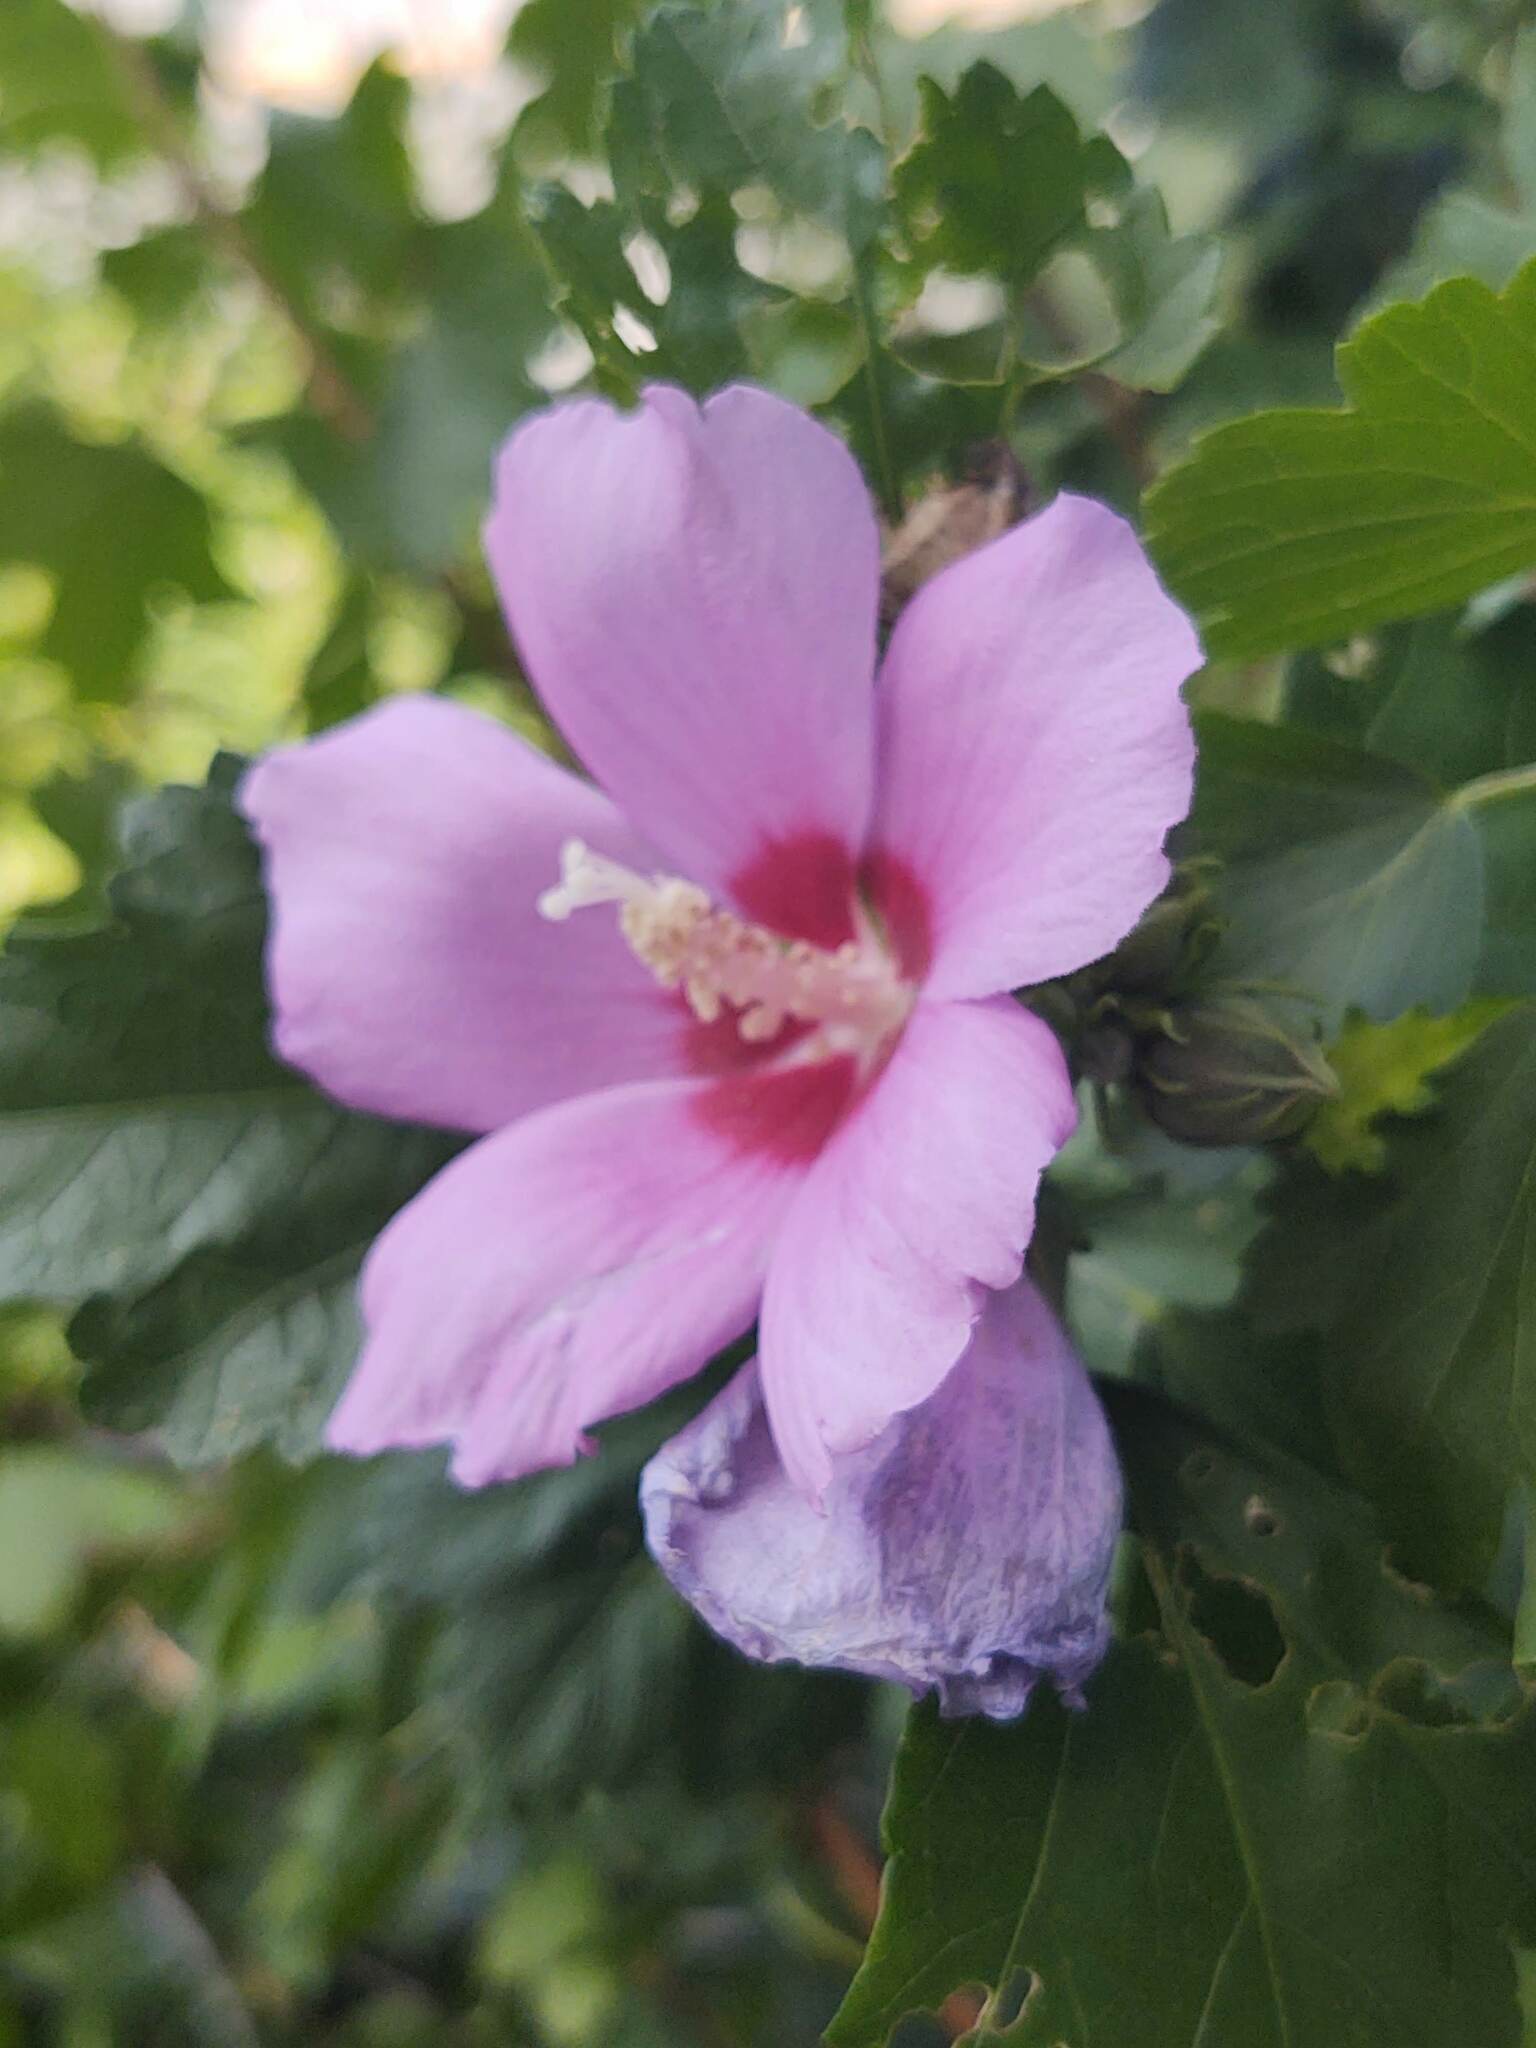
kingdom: Plantae
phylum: Tracheophyta
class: Magnoliopsida
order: Malvales
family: Malvaceae
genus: Hibiscus
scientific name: Hibiscus syriacus
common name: Syrian ketmia
